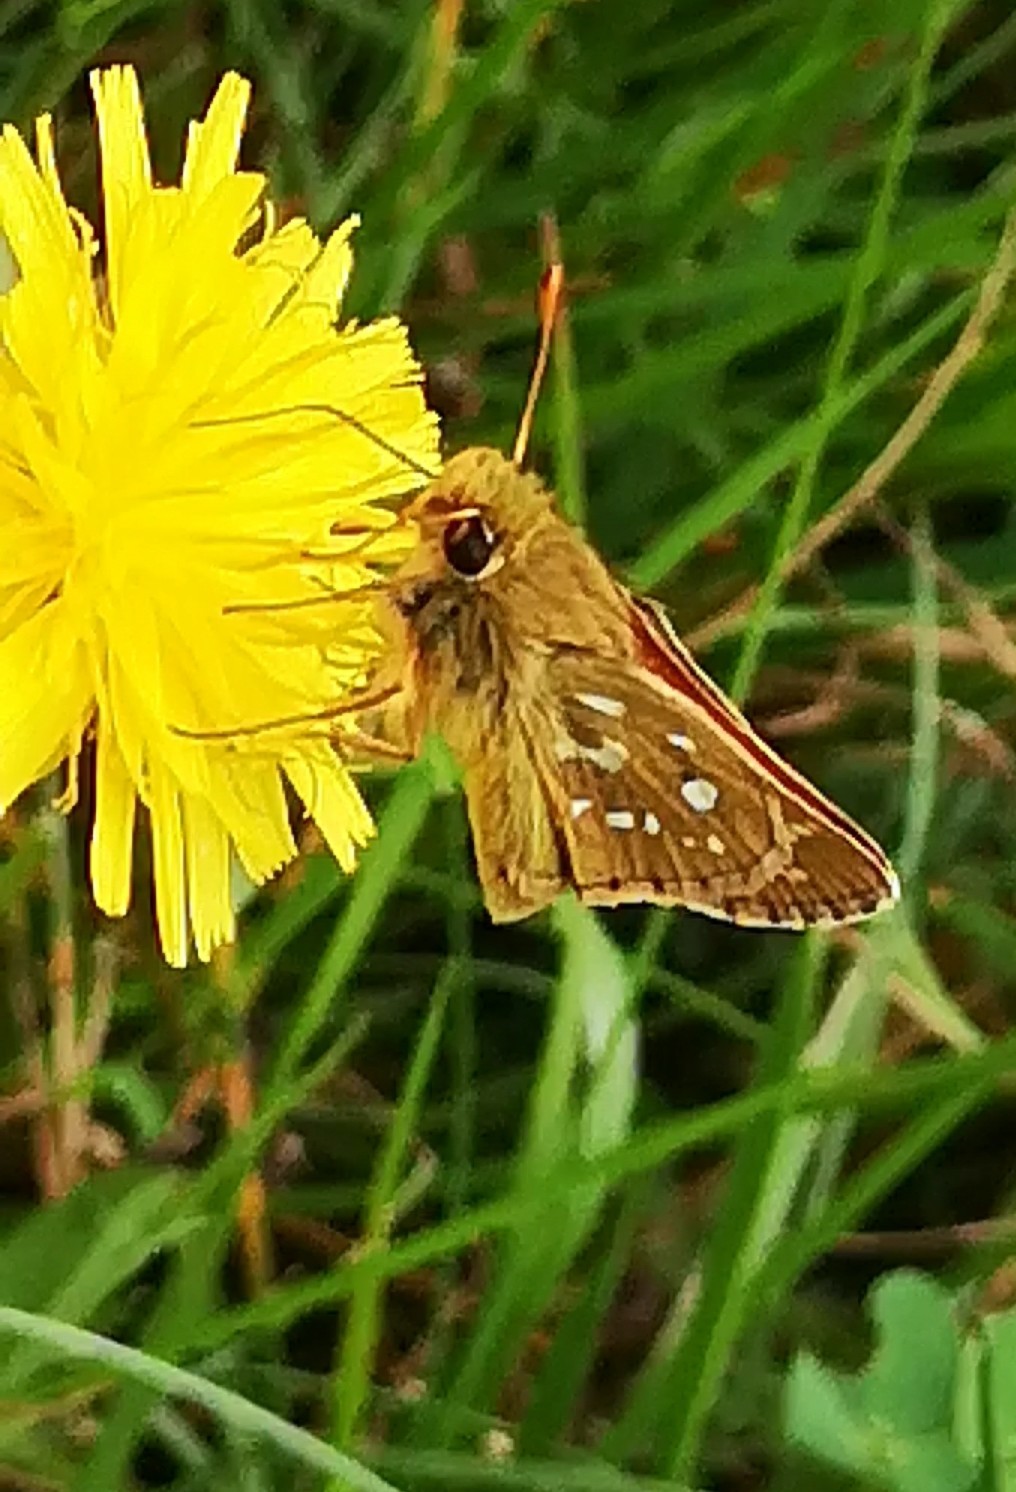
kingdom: Animalia
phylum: Arthropoda
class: Insecta
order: Lepidoptera
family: Hesperiidae
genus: Hesperia
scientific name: Hesperia comma
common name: Common branded skipper
